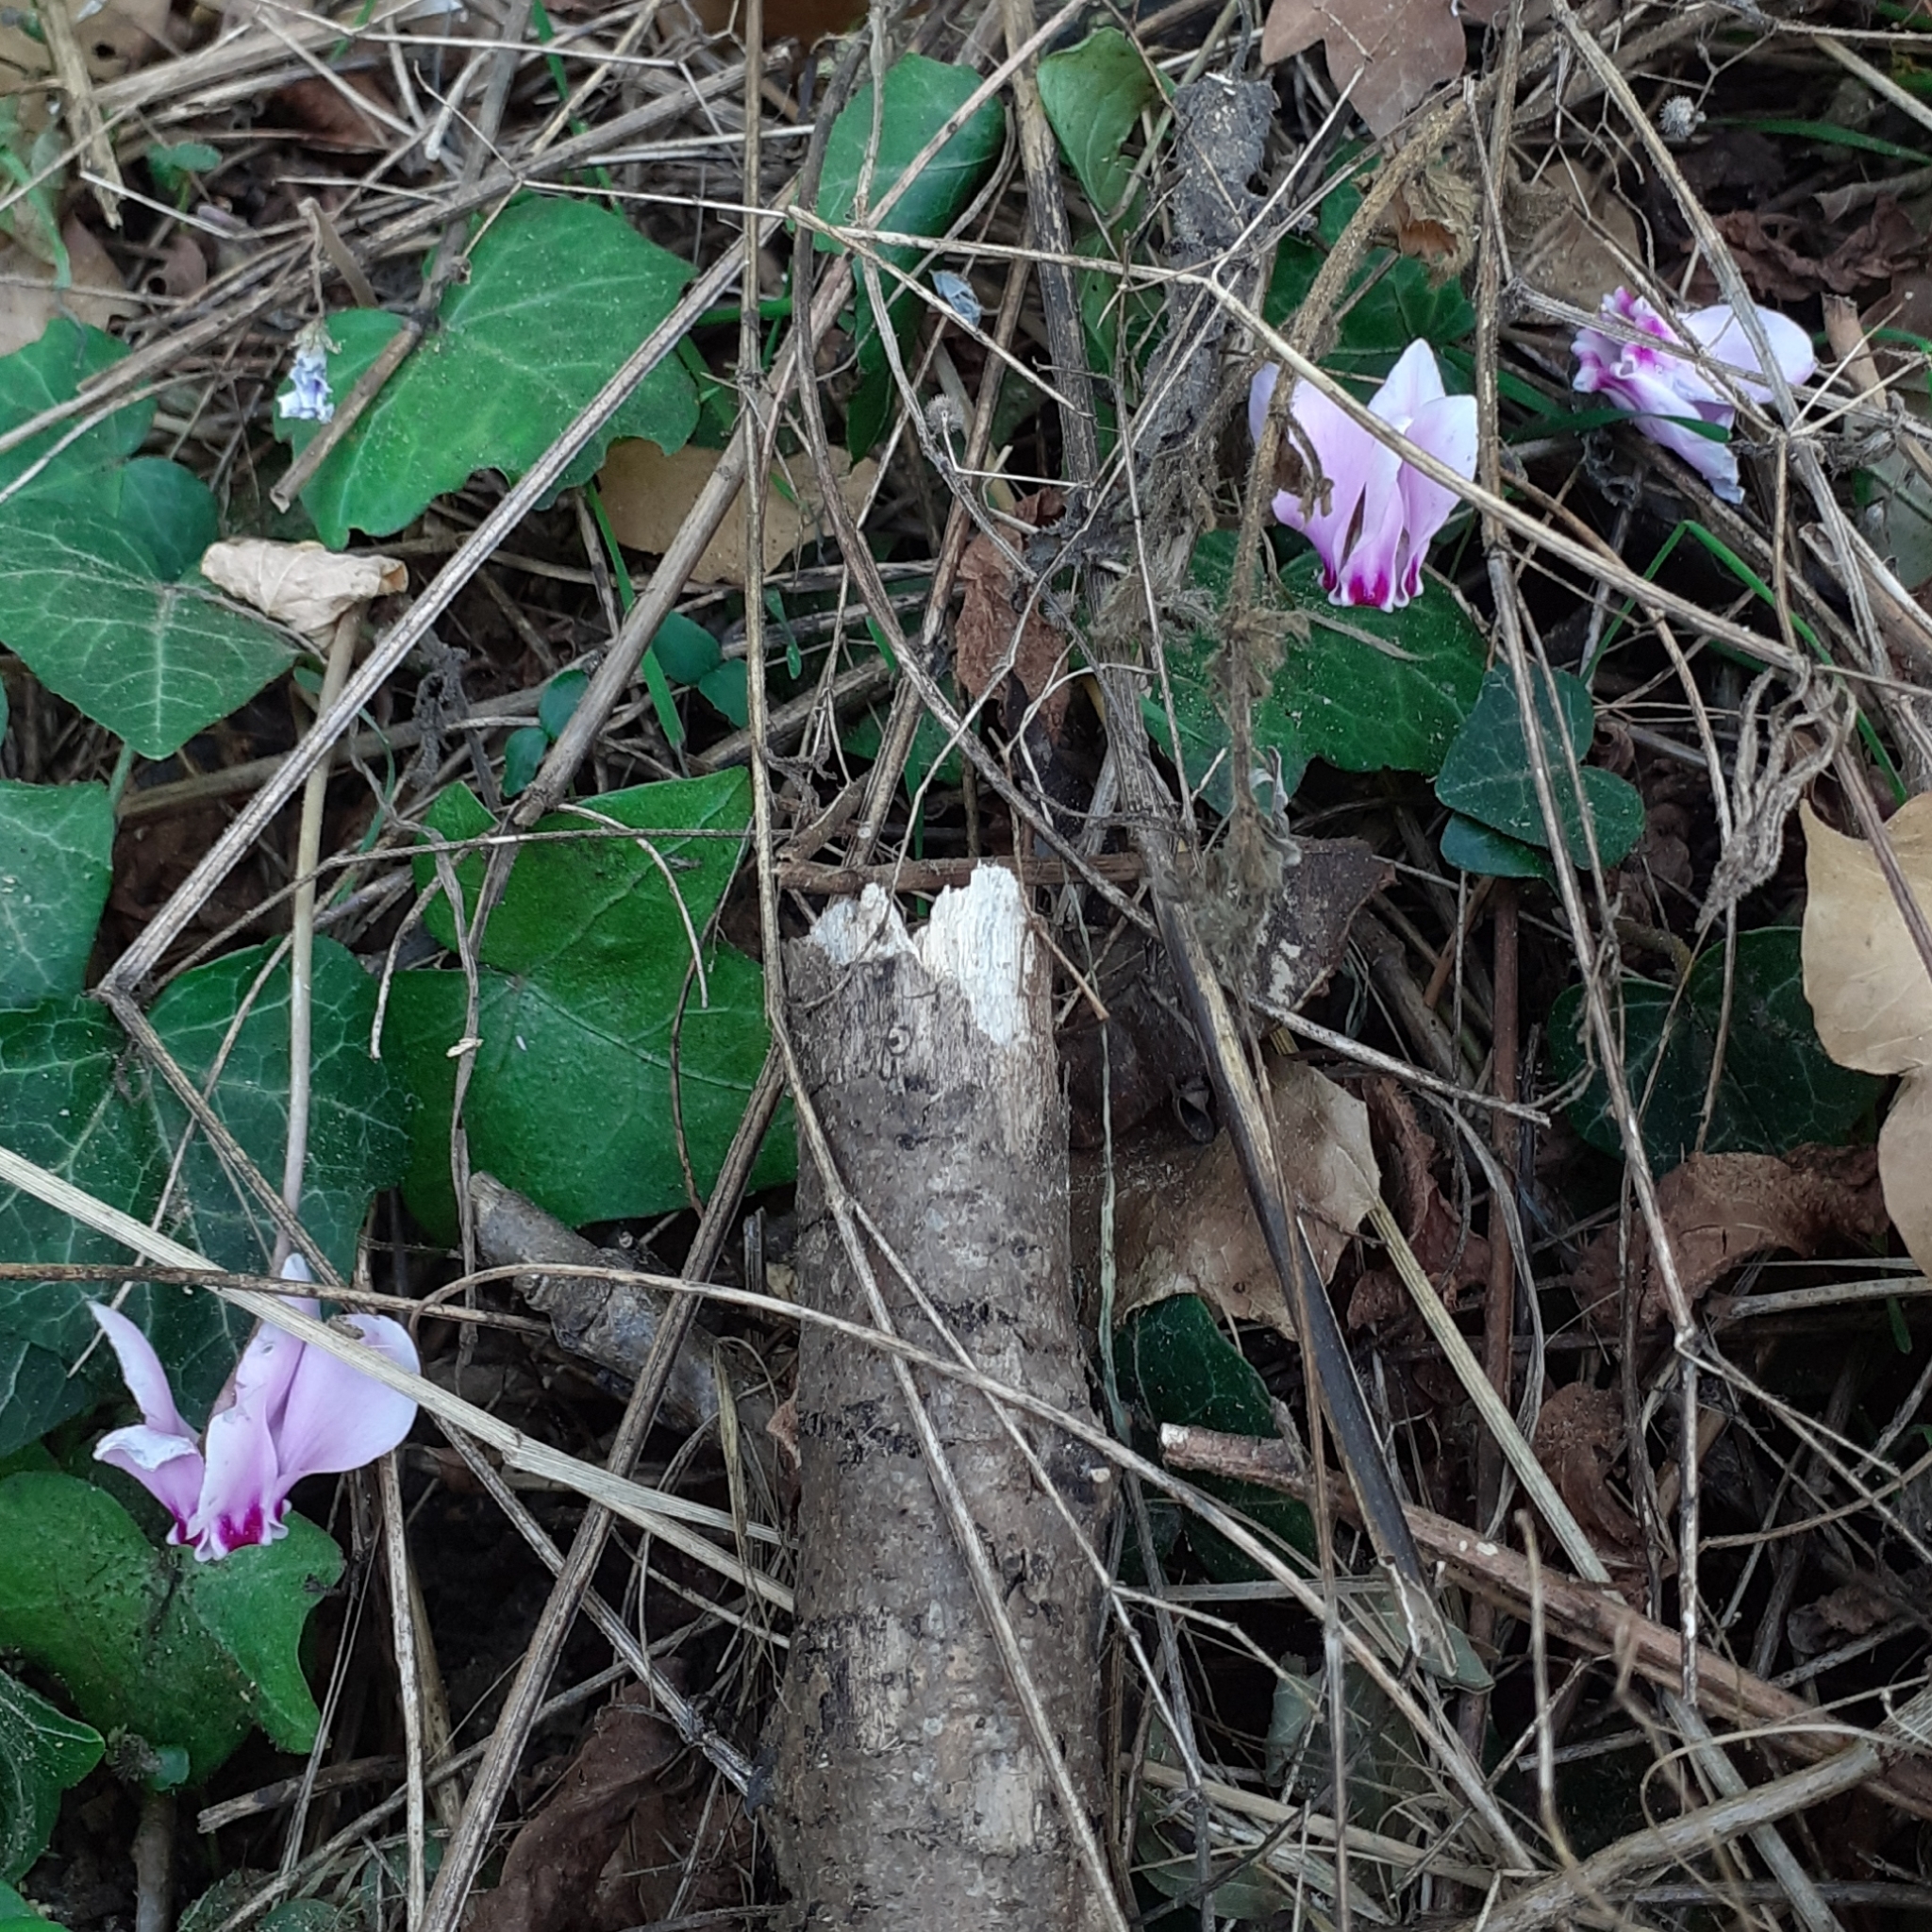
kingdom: Plantae
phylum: Tracheophyta
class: Magnoliopsida
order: Ericales
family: Primulaceae
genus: Cyclamen
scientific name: Cyclamen hederifolium
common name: Sowbread
